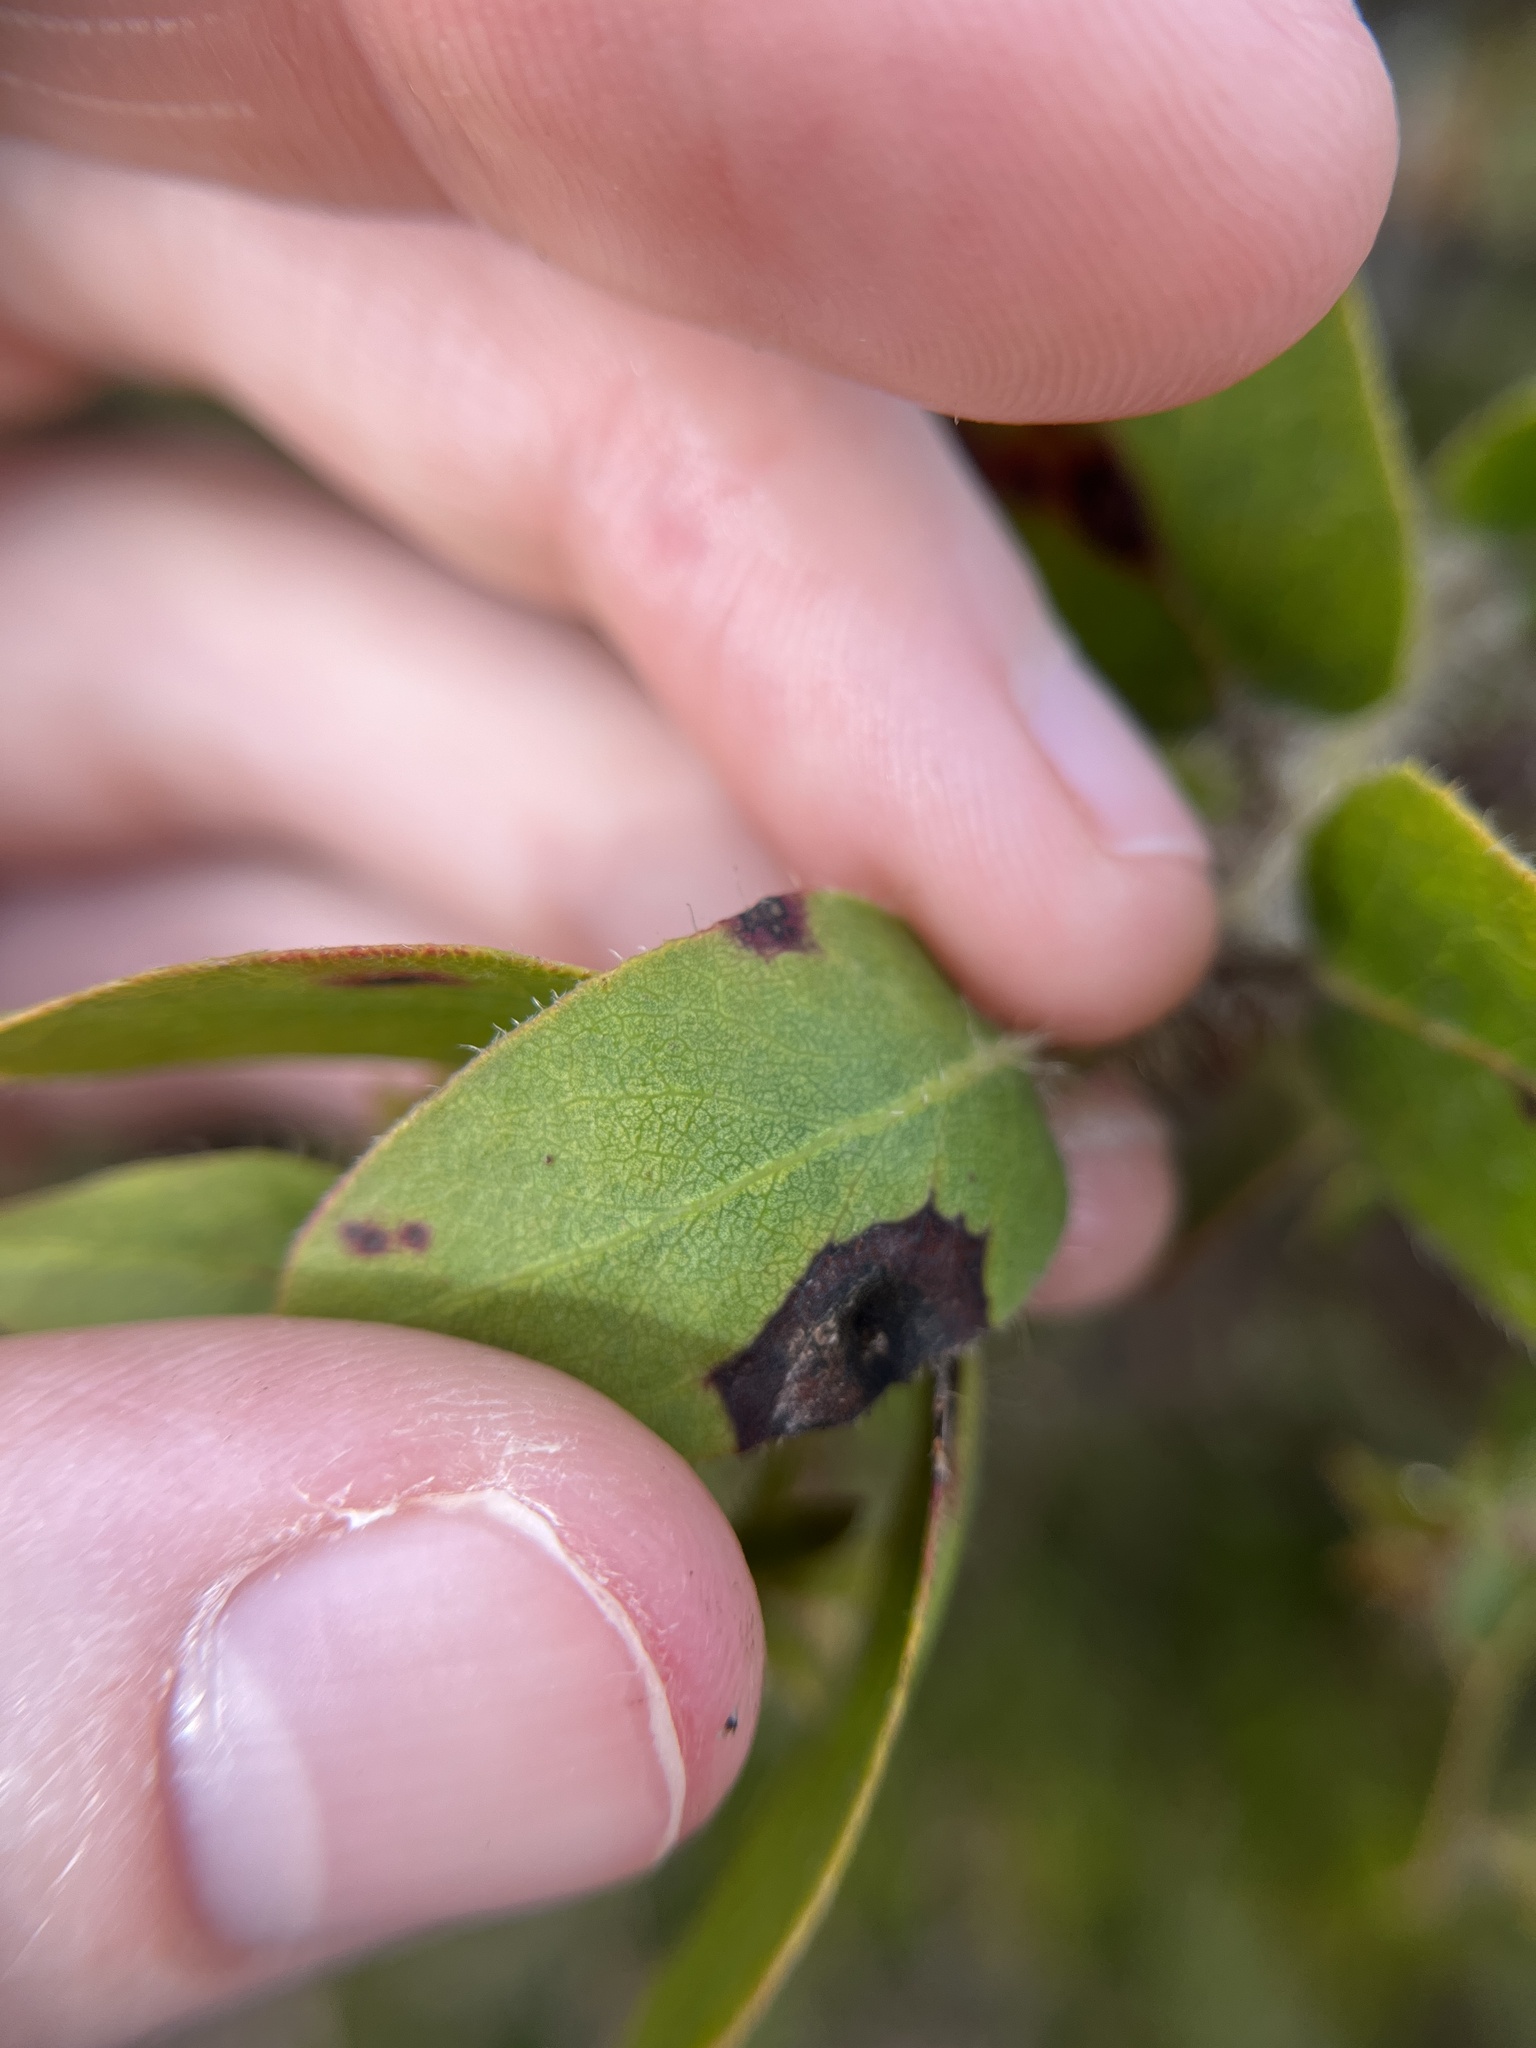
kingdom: Plantae
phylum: Tracheophyta
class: Magnoliopsida
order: Ericales
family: Ericaceae
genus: Arctostaphylos
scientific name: Arctostaphylos crustacea
